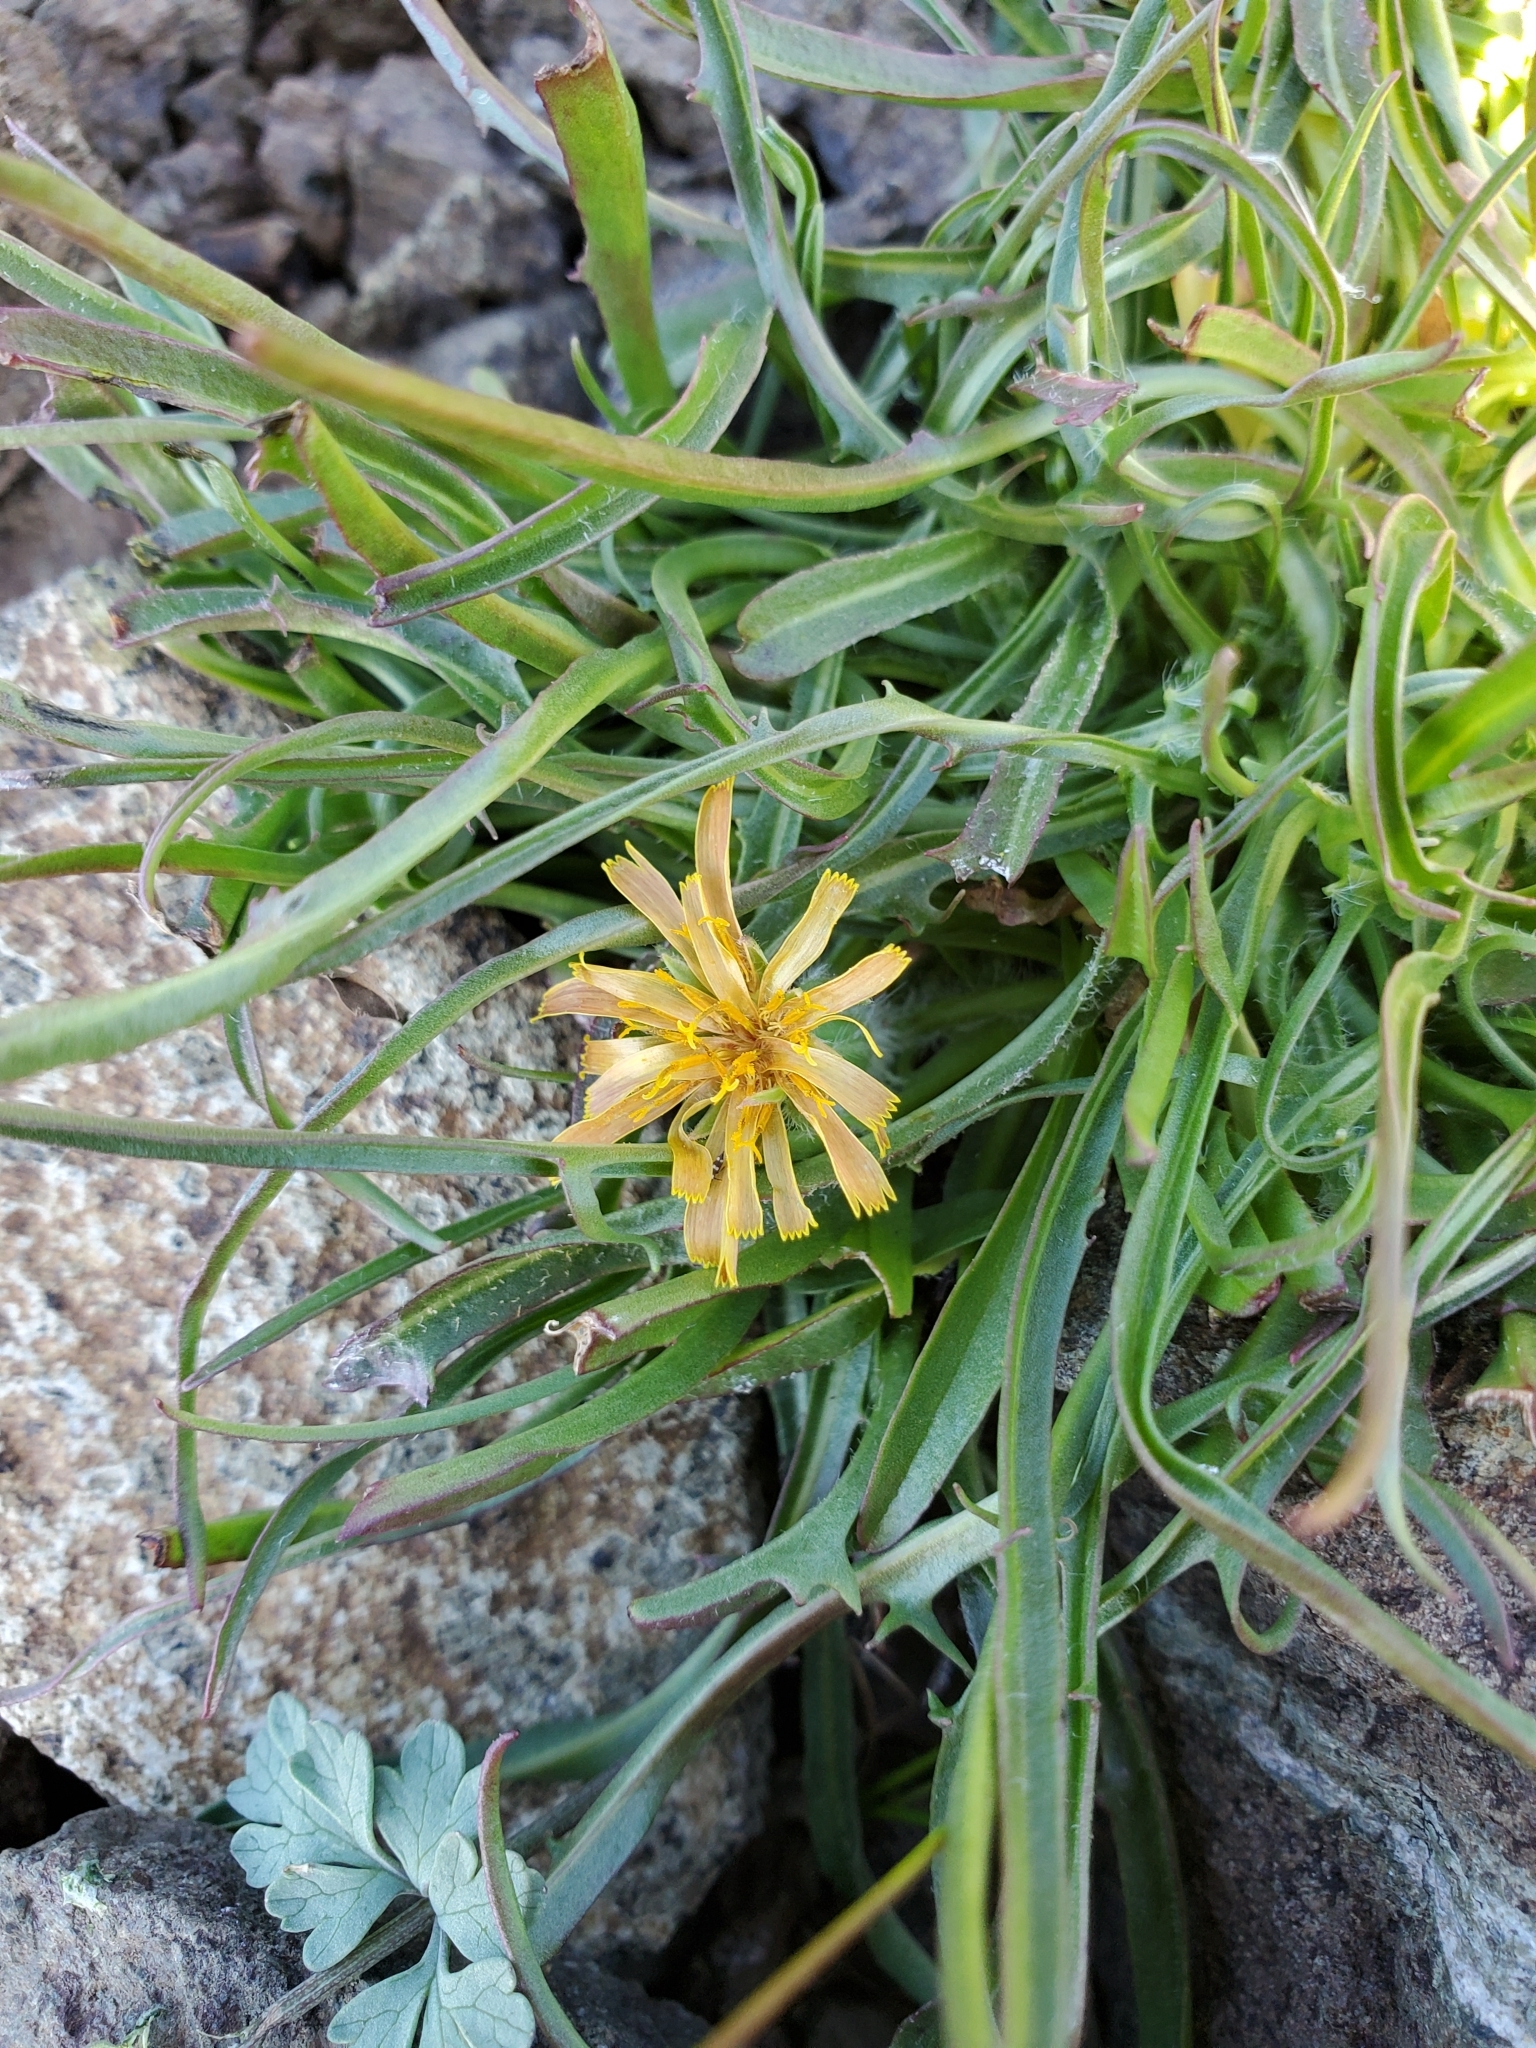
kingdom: Plantae
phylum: Tracheophyta
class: Magnoliopsida
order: Asterales
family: Asteraceae
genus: Agoseris
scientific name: Agoseris aurantiaca
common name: Mountain agoseris
